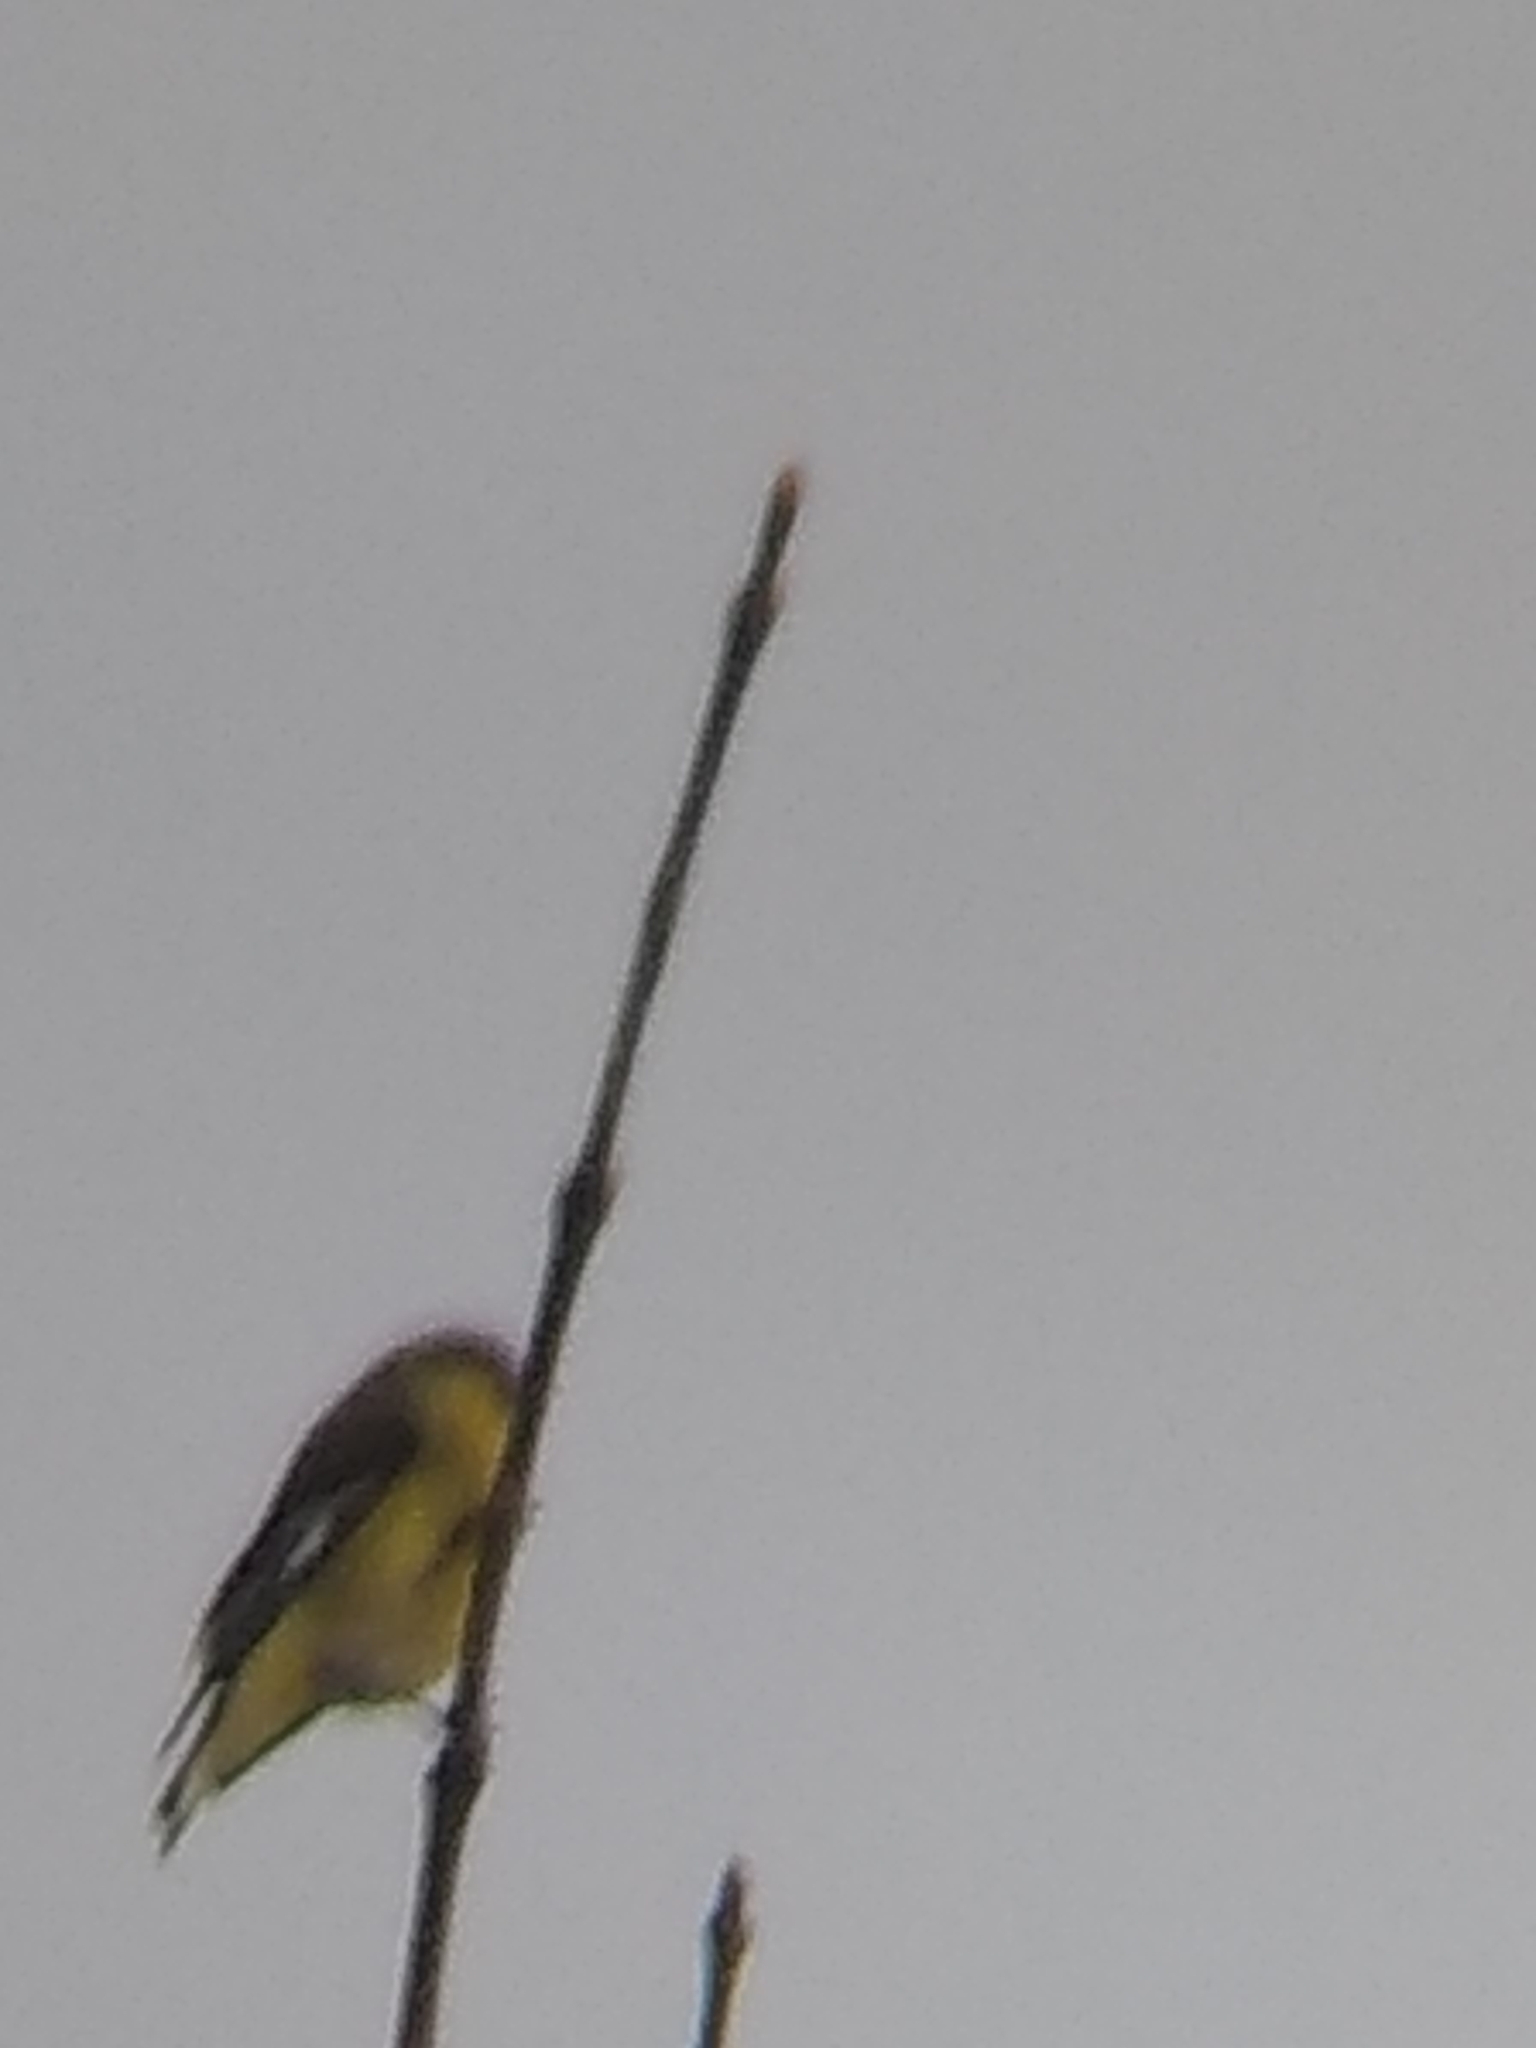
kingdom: Animalia
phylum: Chordata
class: Aves
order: Passeriformes
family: Fringillidae
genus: Spinus
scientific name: Spinus psaltria
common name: Lesser goldfinch
